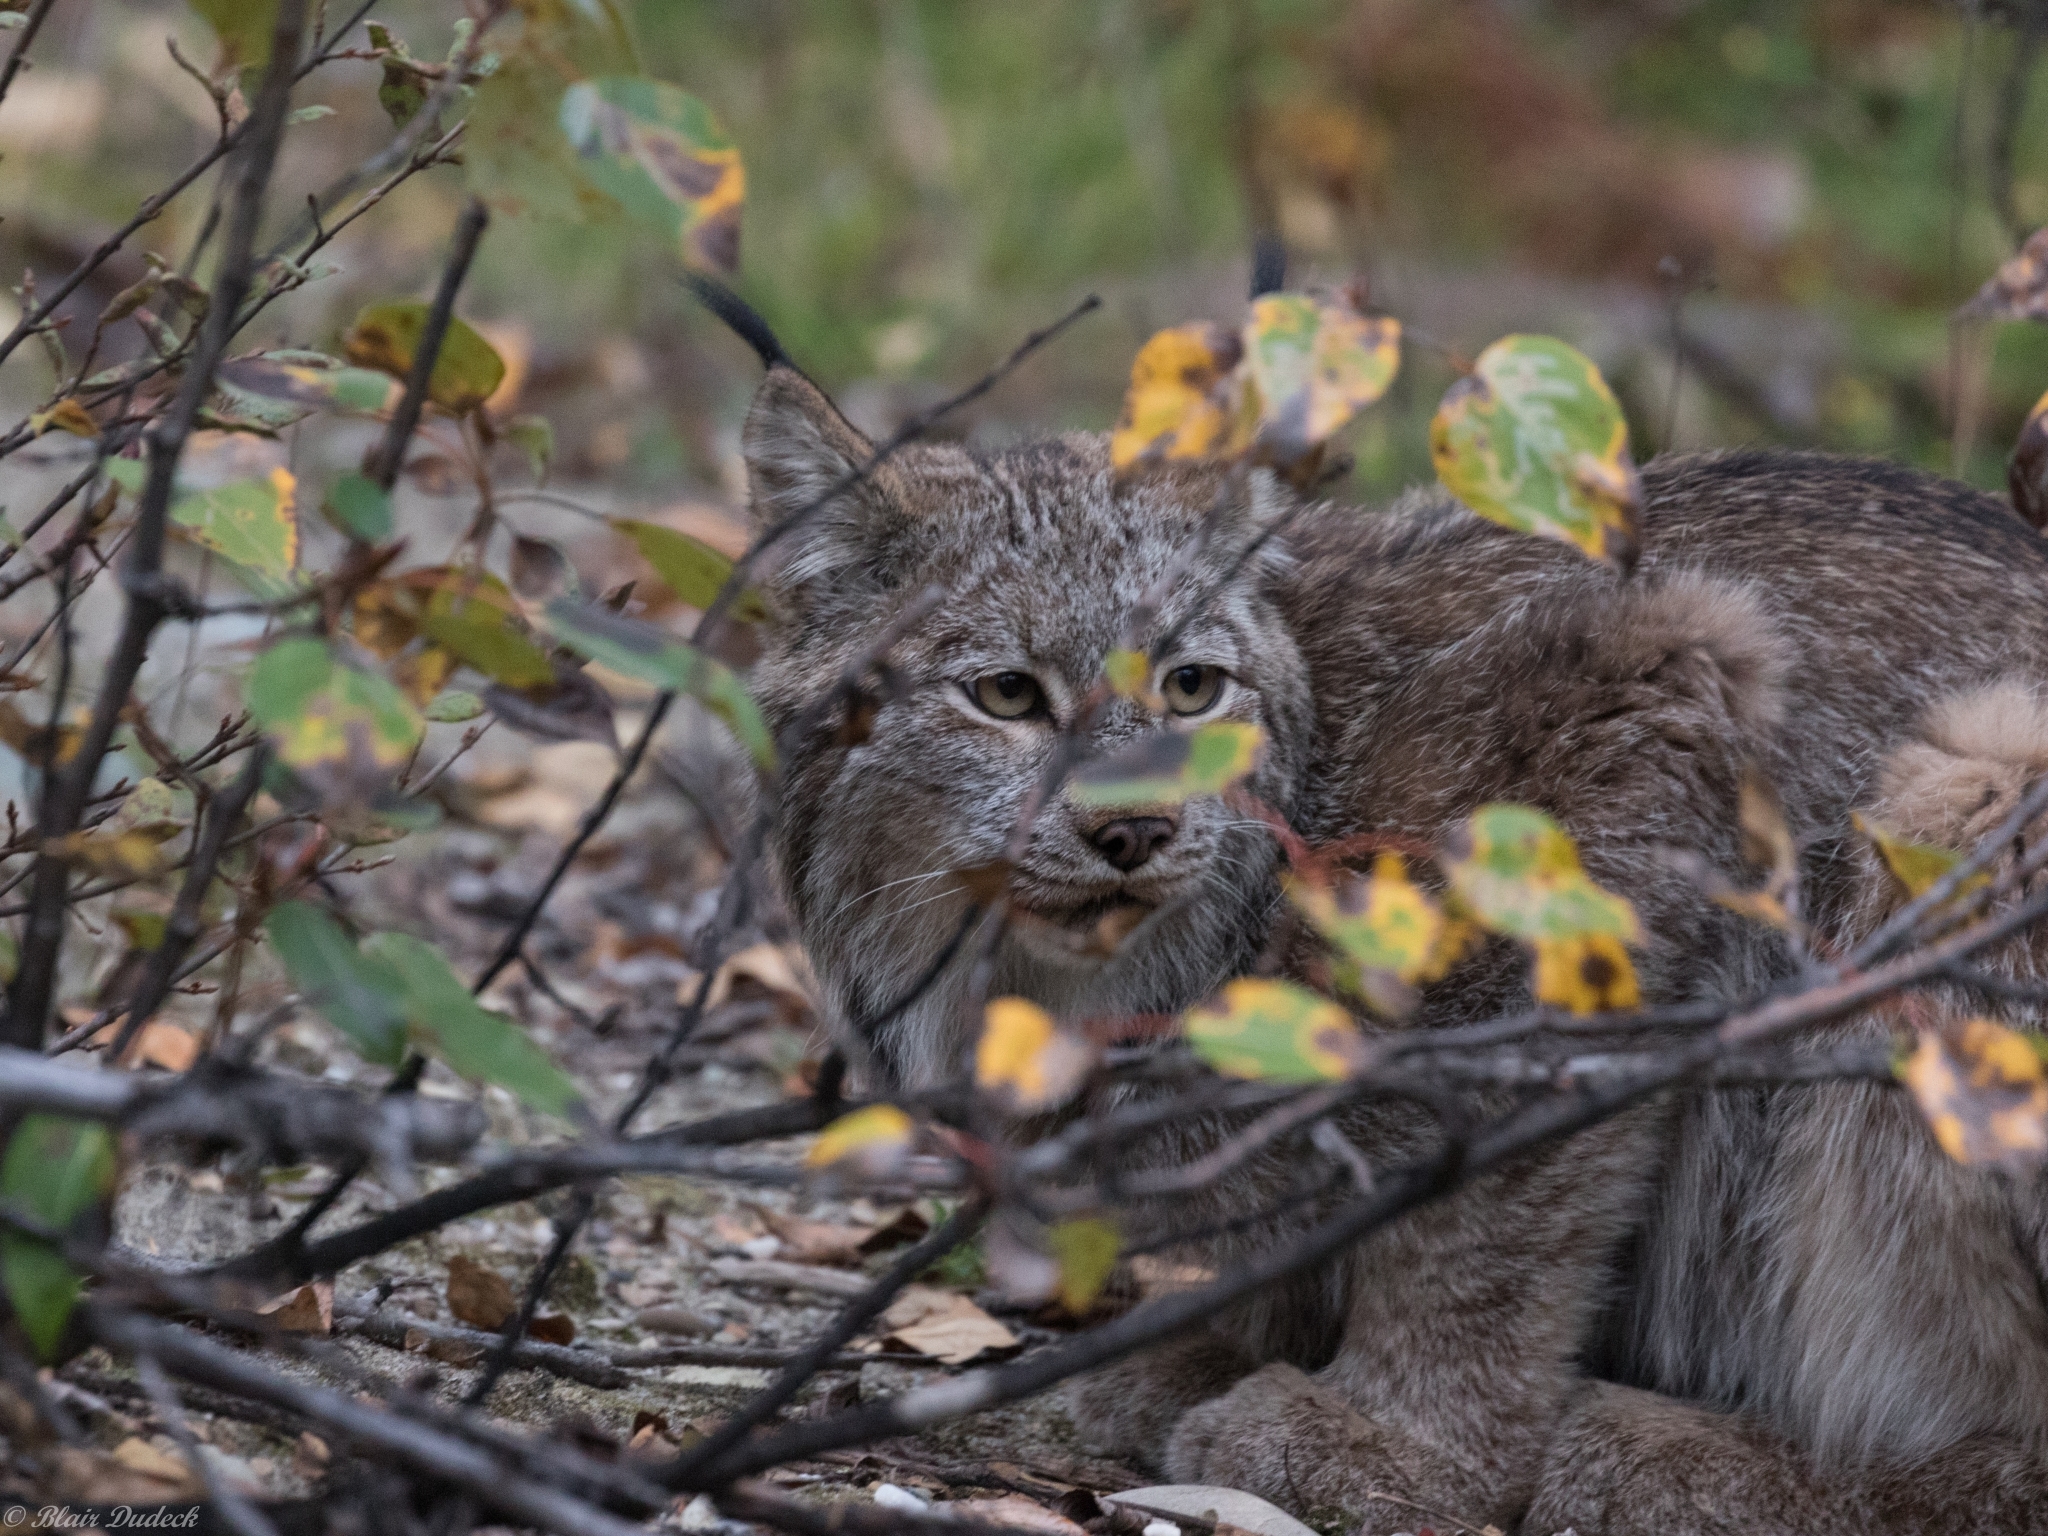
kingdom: Animalia
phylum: Chordata
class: Mammalia
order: Carnivora
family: Felidae
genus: Lynx
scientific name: Lynx canadensis
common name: Canadian lynx
